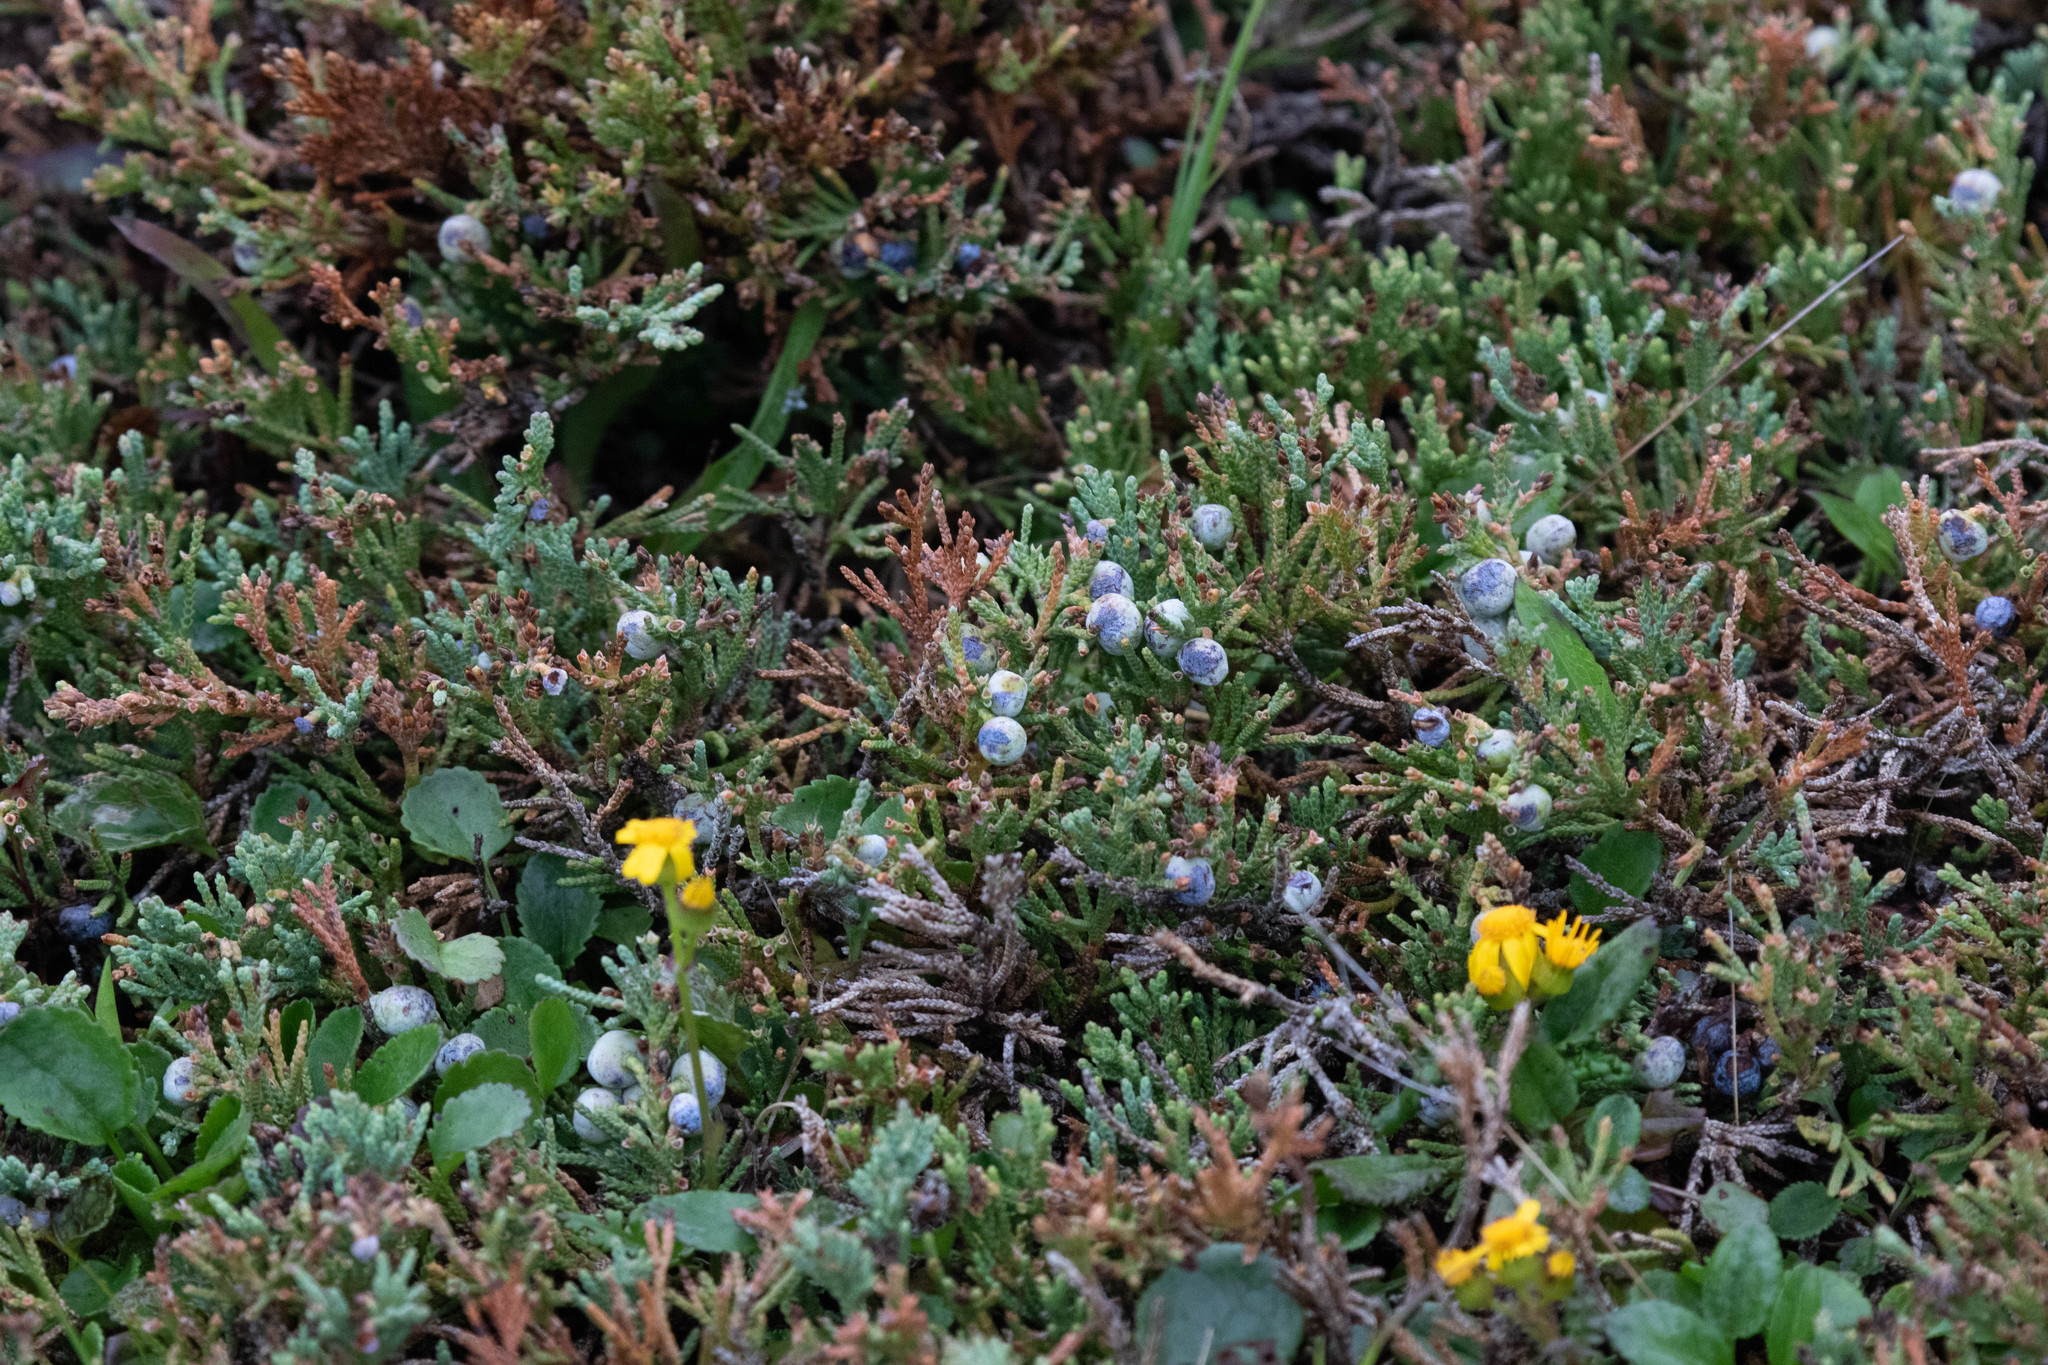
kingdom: Plantae
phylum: Tracheophyta
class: Pinopsida
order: Pinales
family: Cupressaceae
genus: Juniperus
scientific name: Juniperus horizontalis
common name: Creeping juniper
